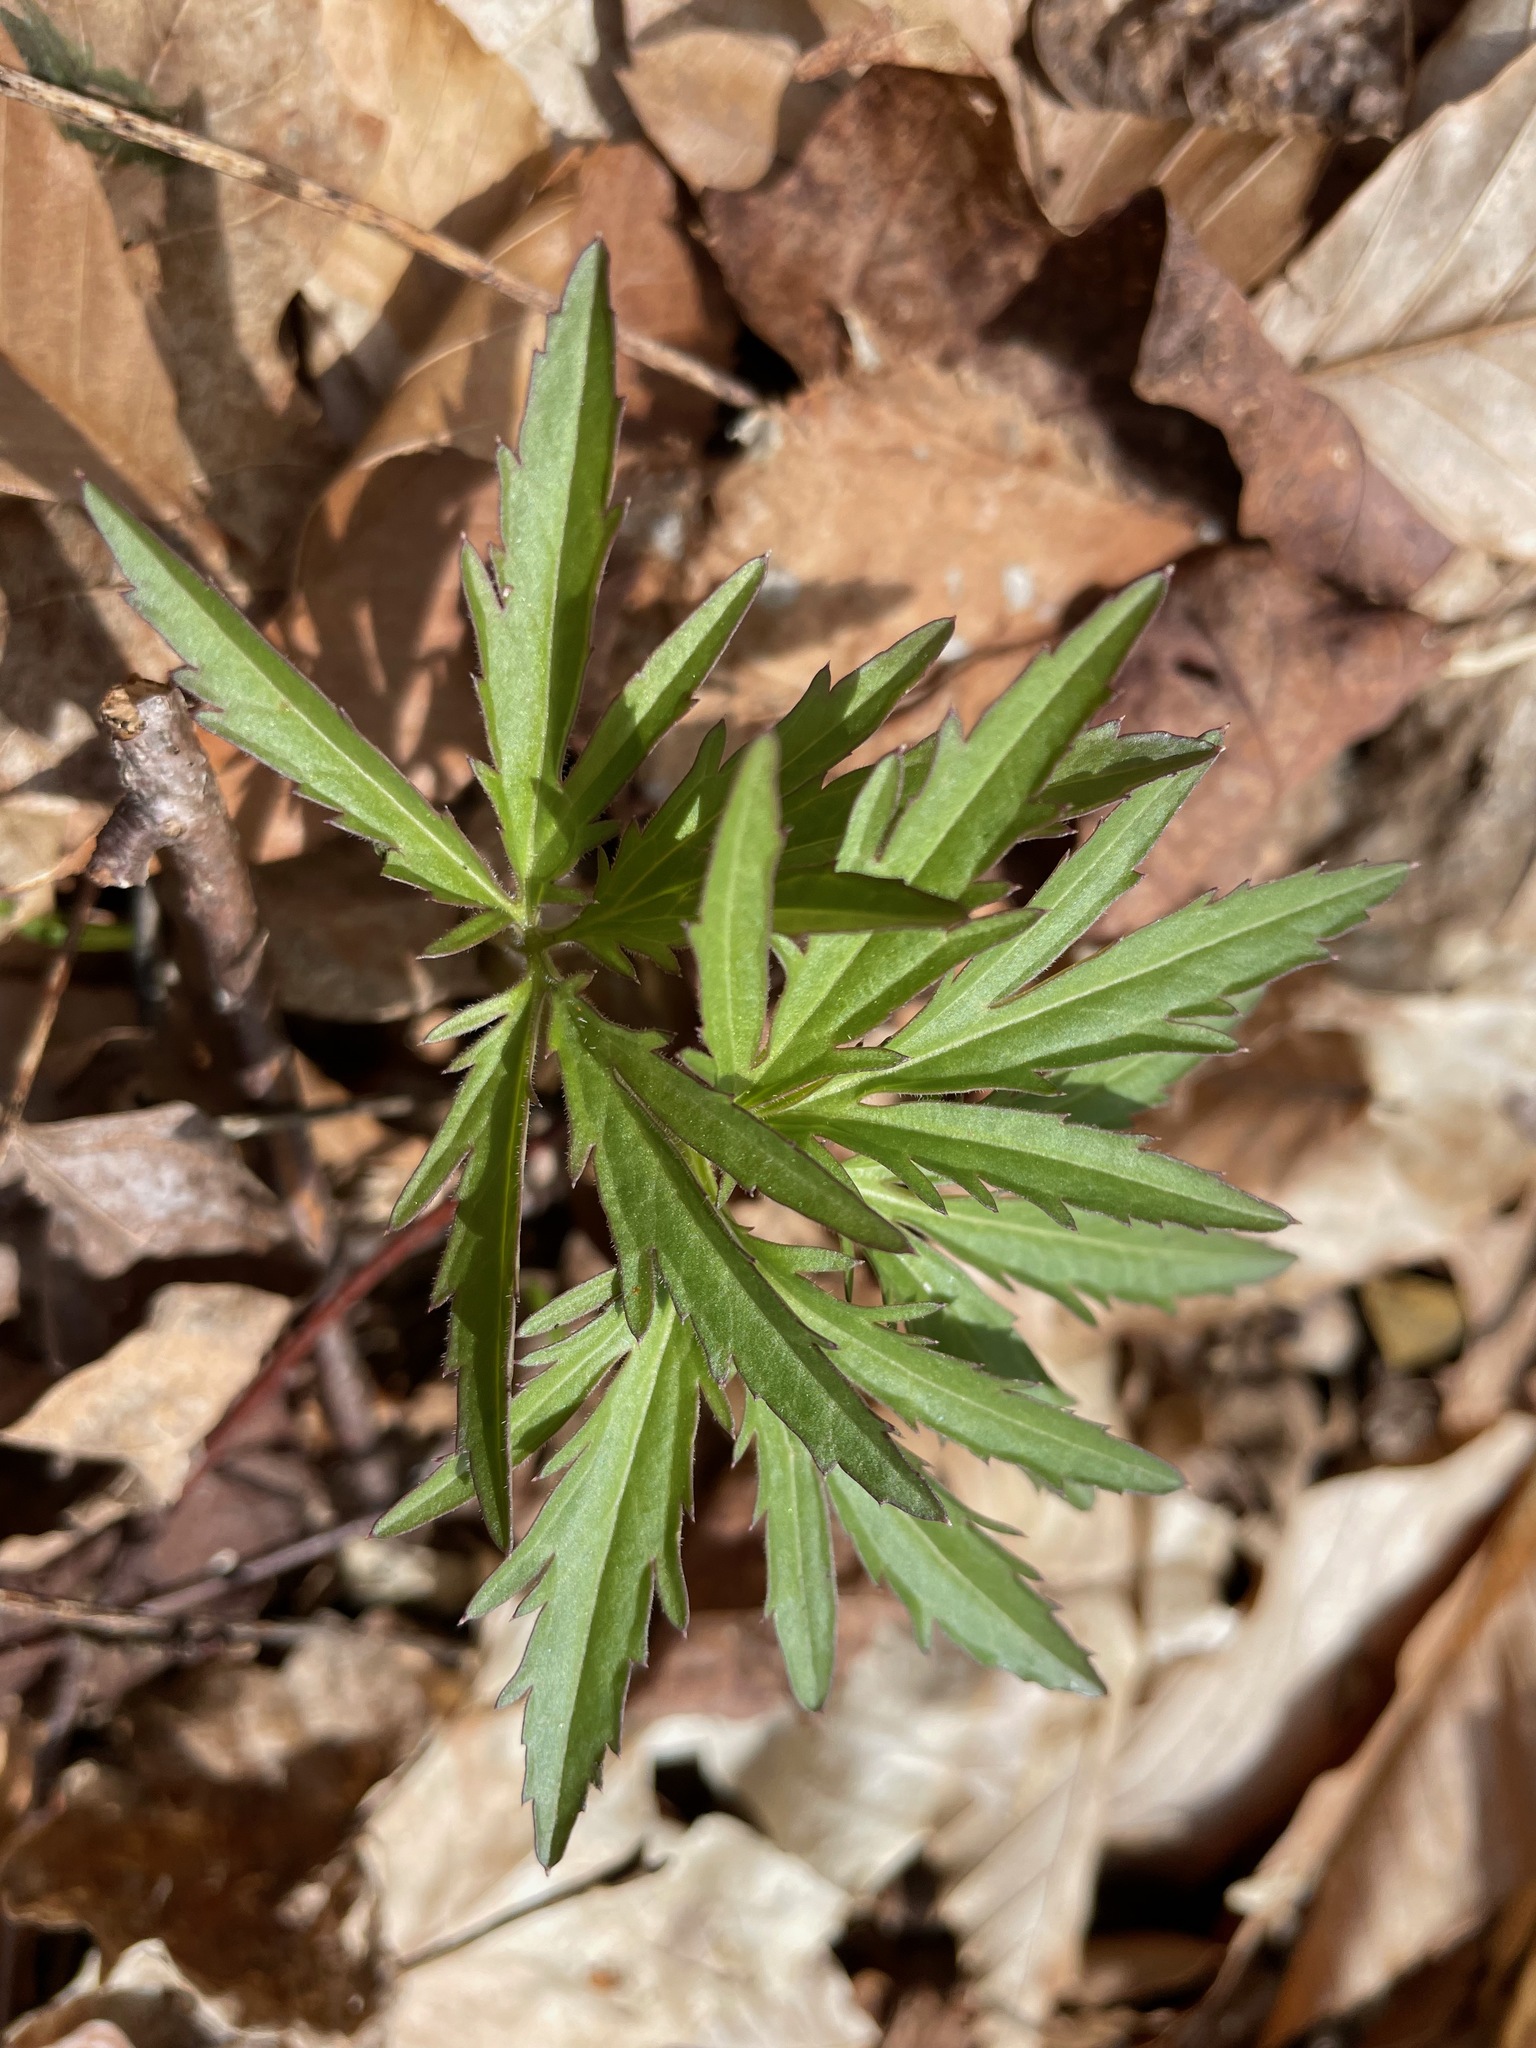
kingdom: Plantae
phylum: Tracheophyta
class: Magnoliopsida
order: Brassicales
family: Brassicaceae
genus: Cardamine
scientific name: Cardamine concatenata
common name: Cut-leaf toothcup
